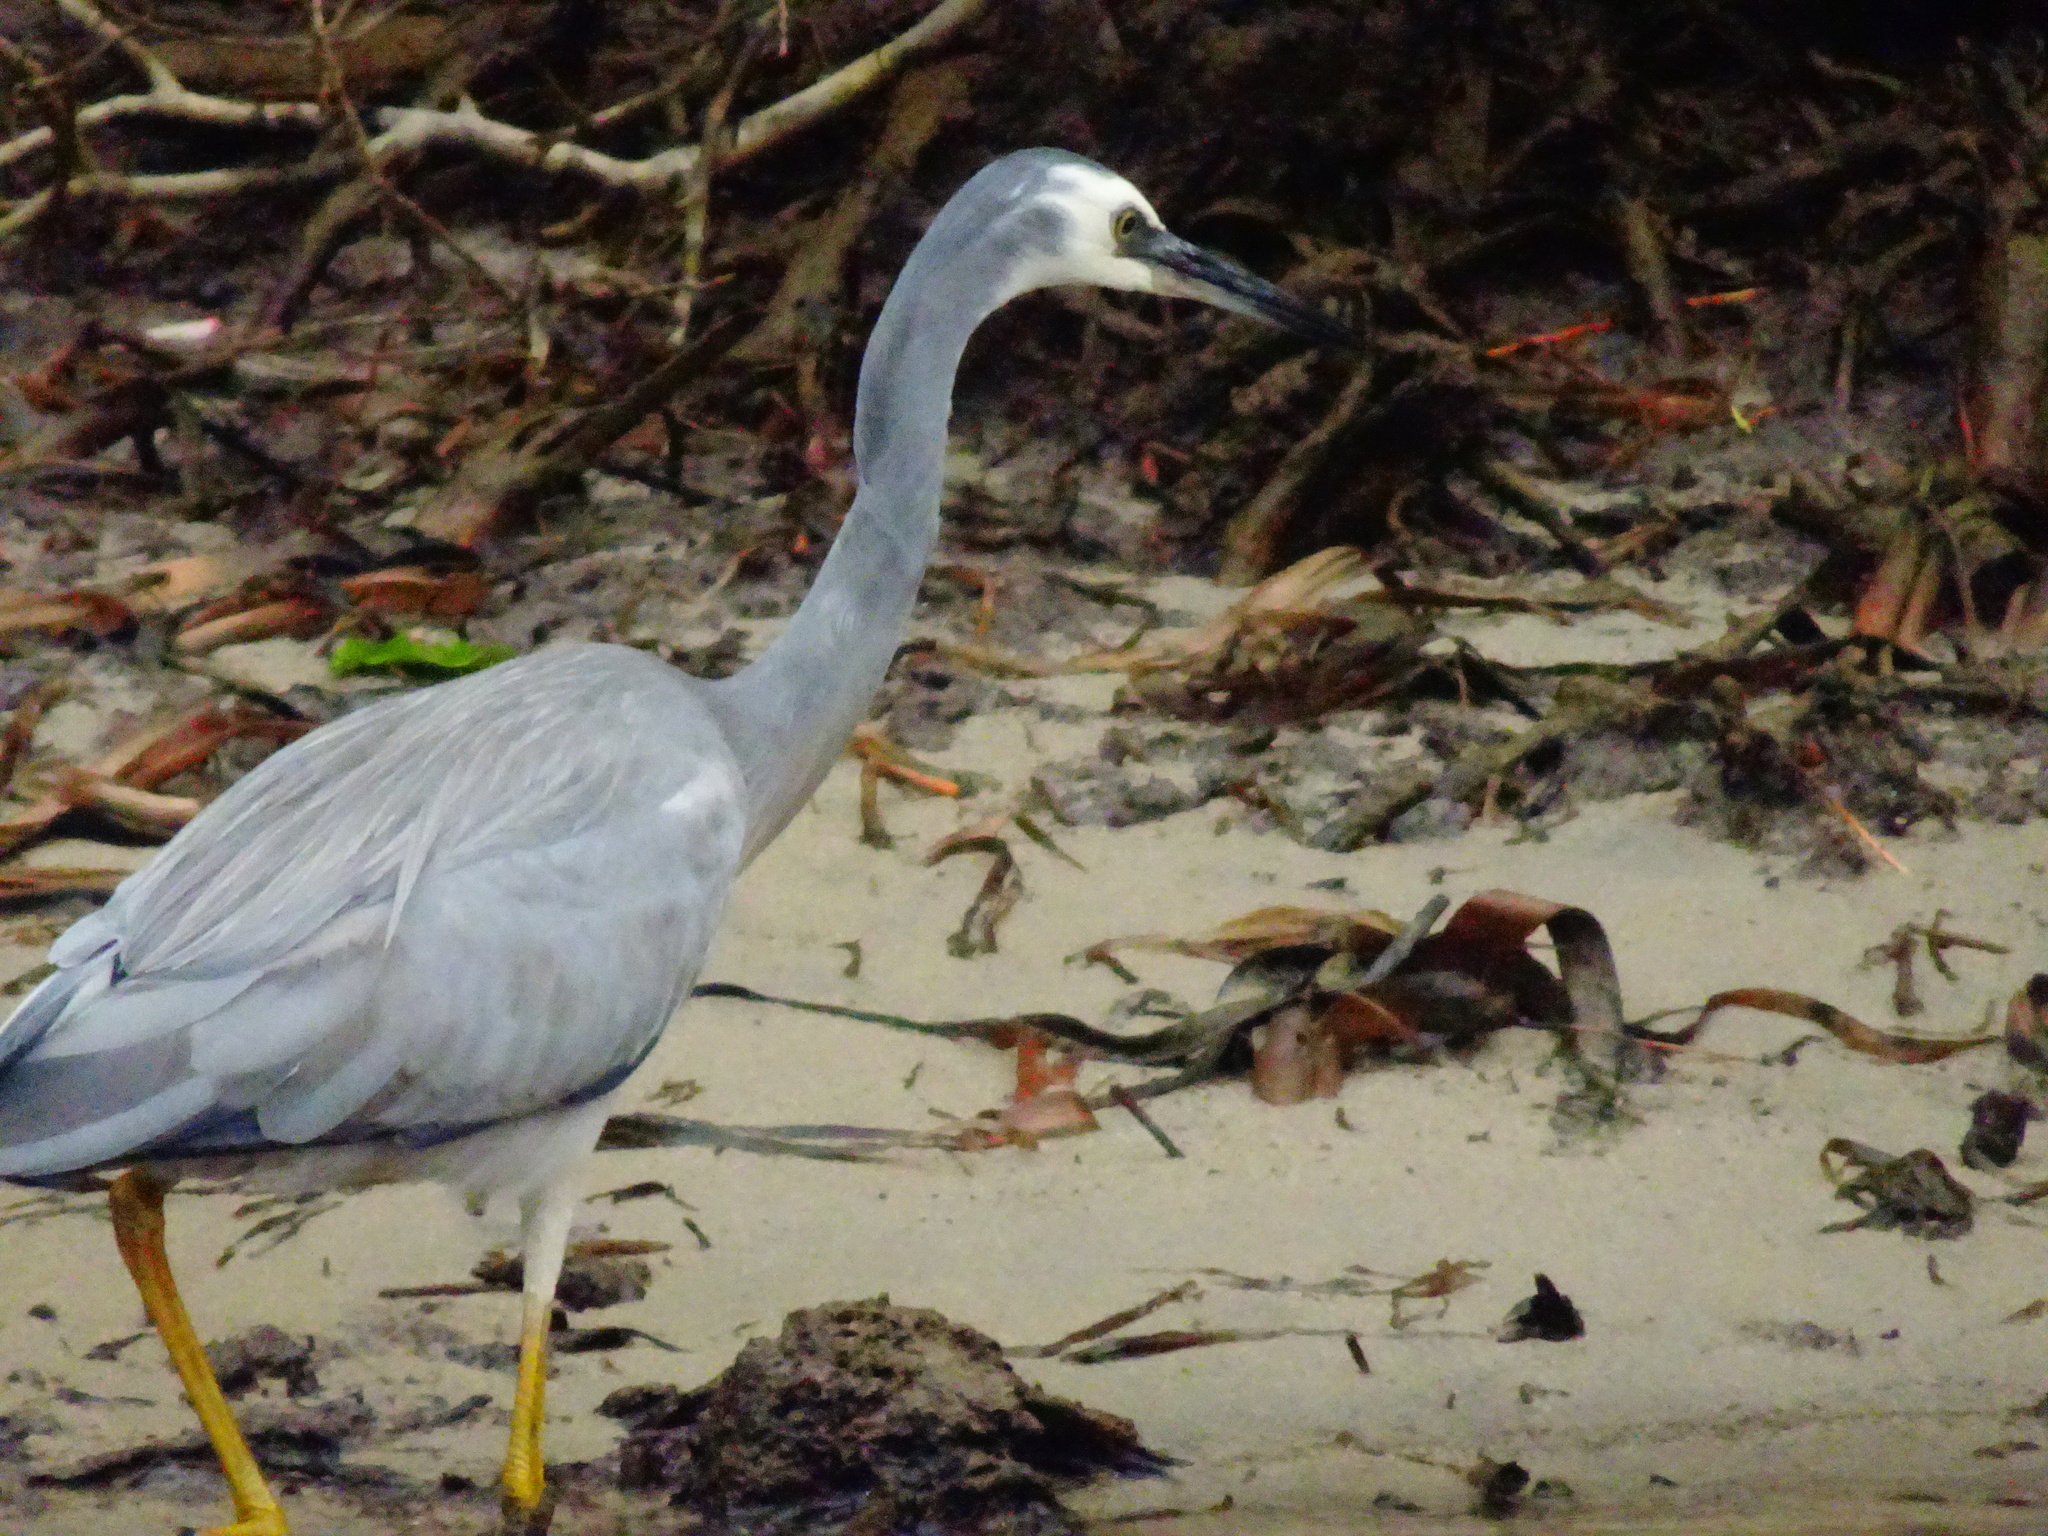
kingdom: Animalia
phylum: Chordata
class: Aves
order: Pelecaniformes
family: Ardeidae
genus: Egretta
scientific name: Egretta novaehollandiae
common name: White-faced heron
